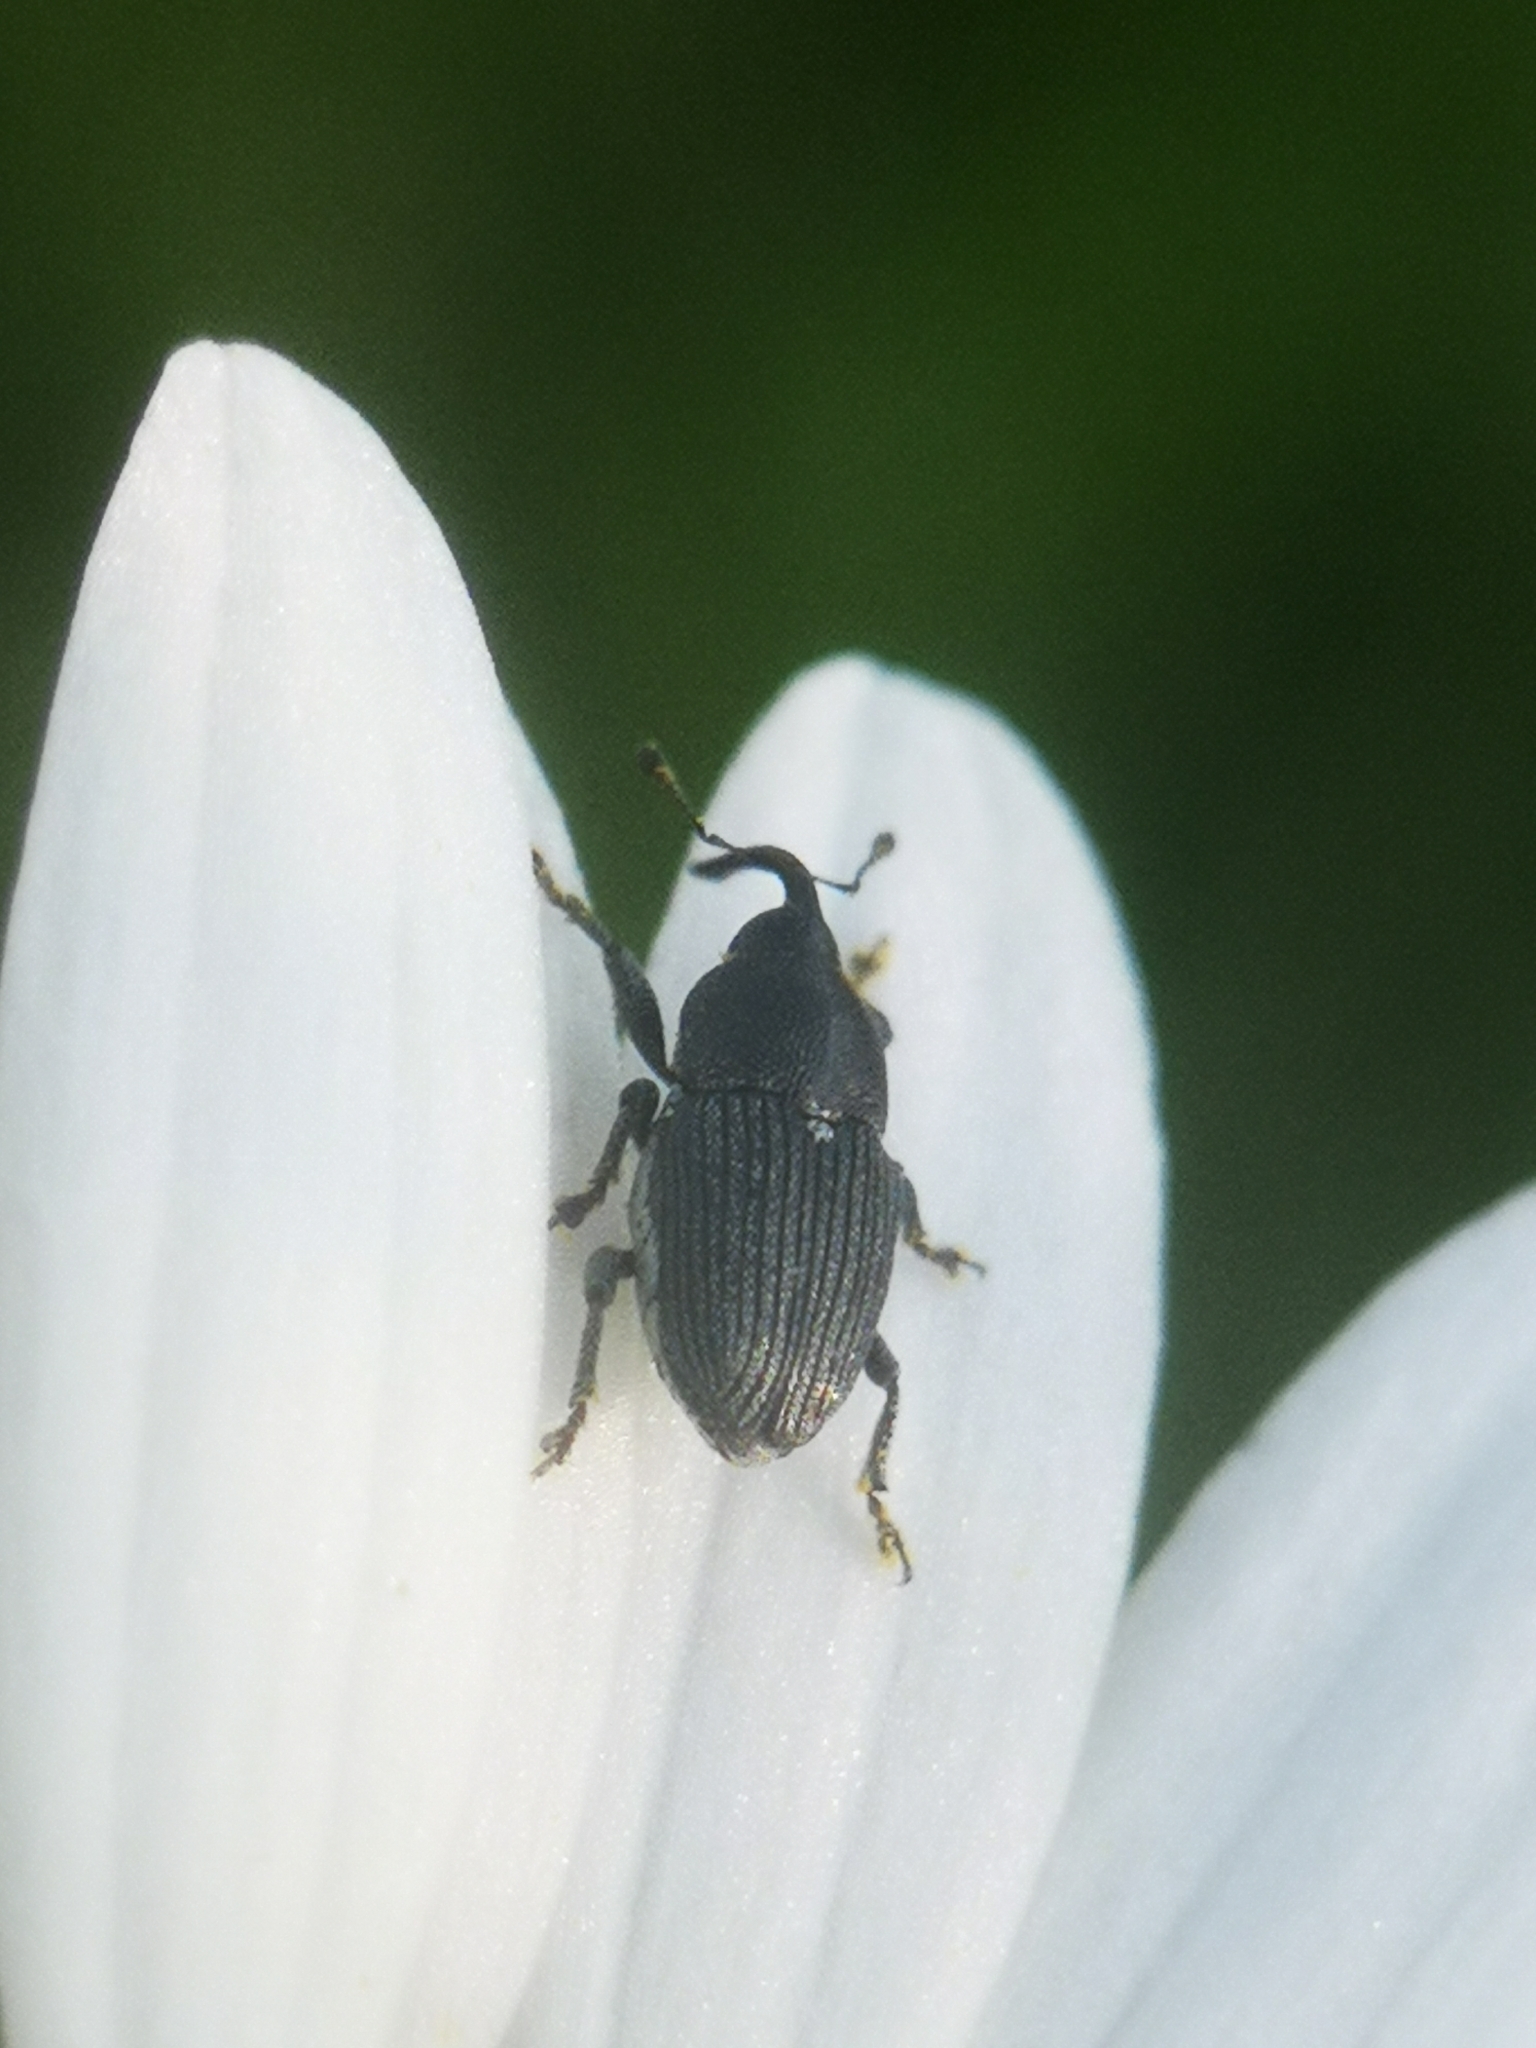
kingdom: Animalia
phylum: Arthropoda
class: Insecta
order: Coleoptera
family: Curculionidae
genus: Odontocorynus
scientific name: Odontocorynus salebrosus
